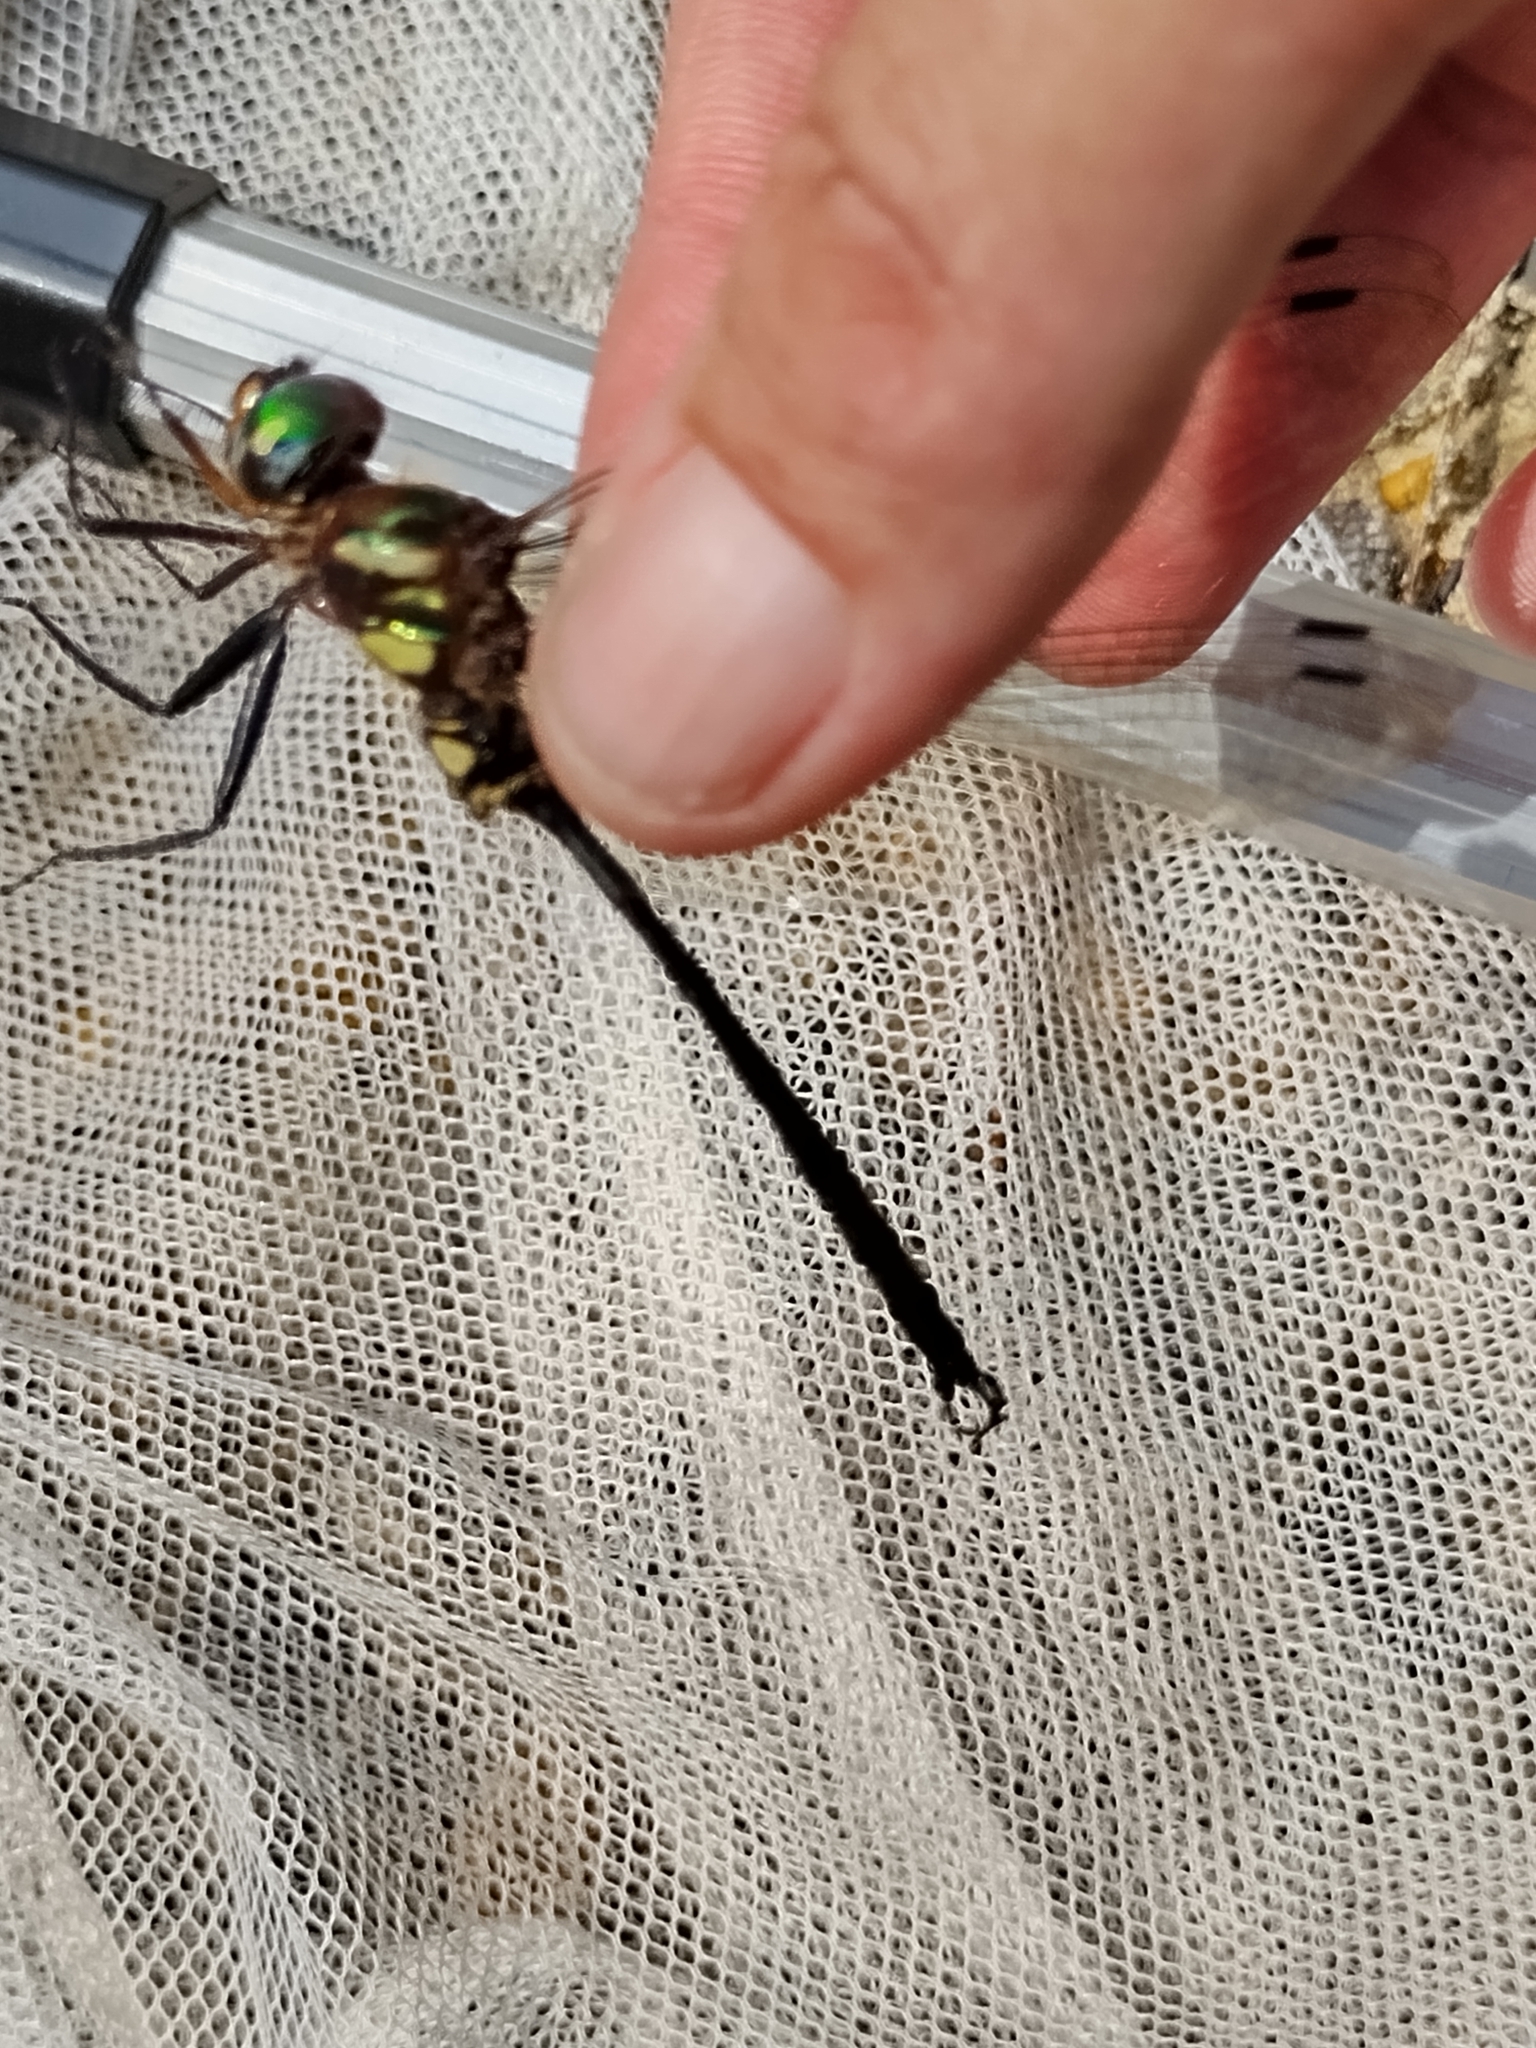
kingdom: Animalia
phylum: Arthropoda
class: Insecta
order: Odonata
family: Corduliidae
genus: Somatochlora
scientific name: Somatochlora tenebrosa
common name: Clamp-tipped emerald
